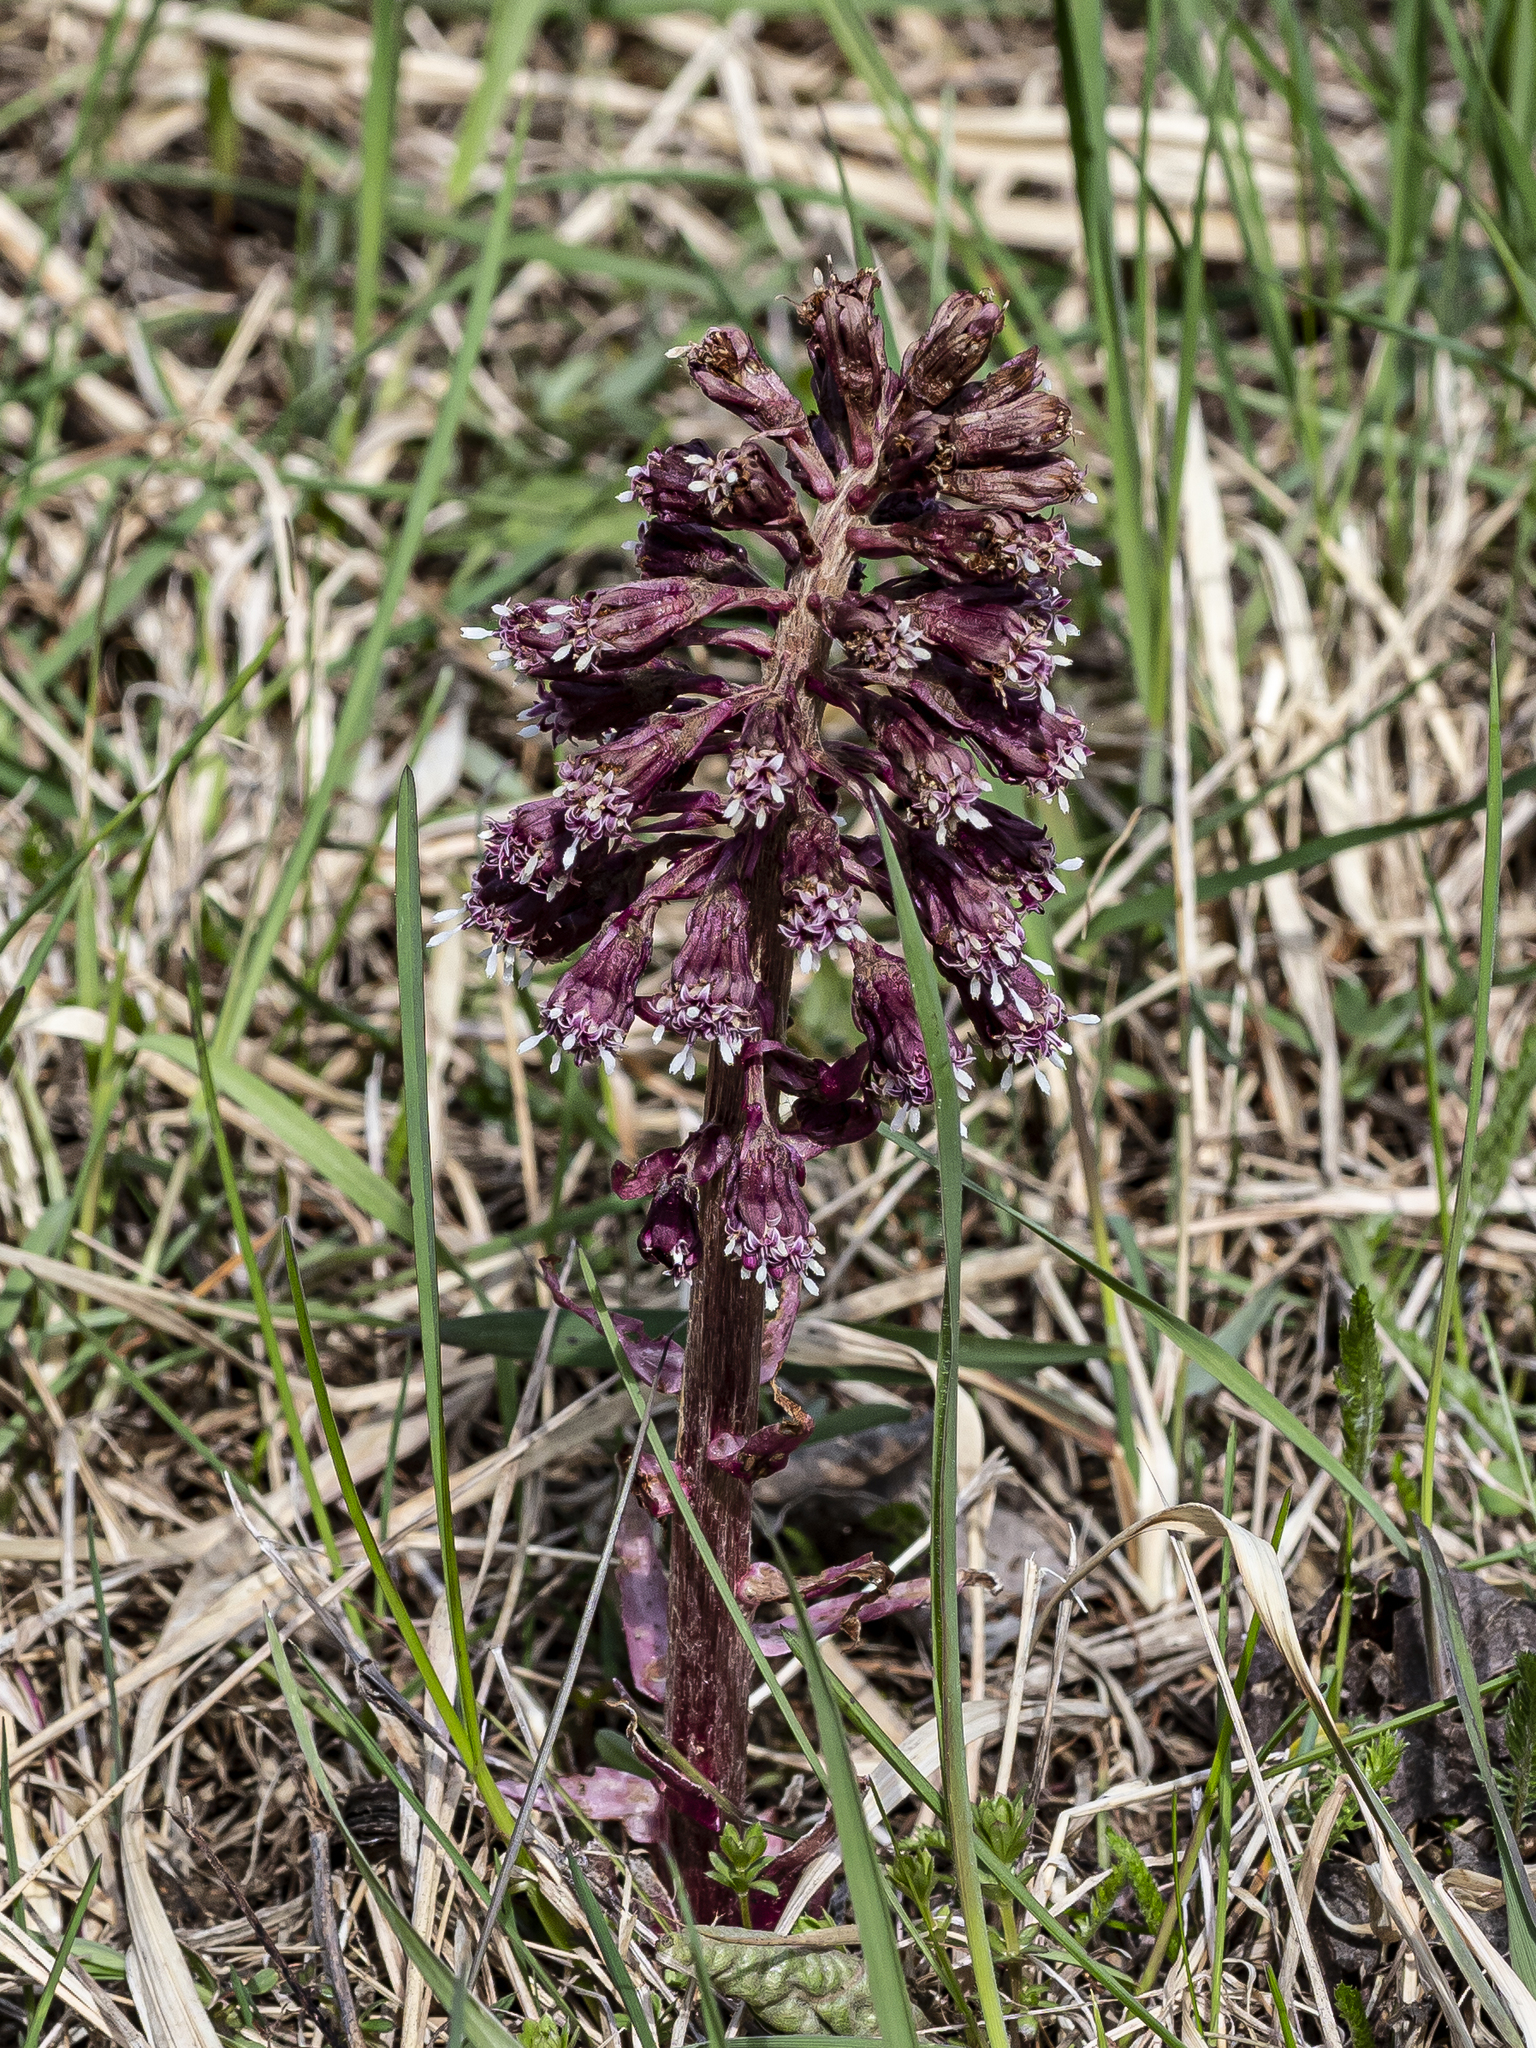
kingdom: Plantae
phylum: Tracheophyta
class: Magnoliopsida
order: Asterales
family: Asteraceae
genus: Petasites
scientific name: Petasites hybridus
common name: Butterbur
